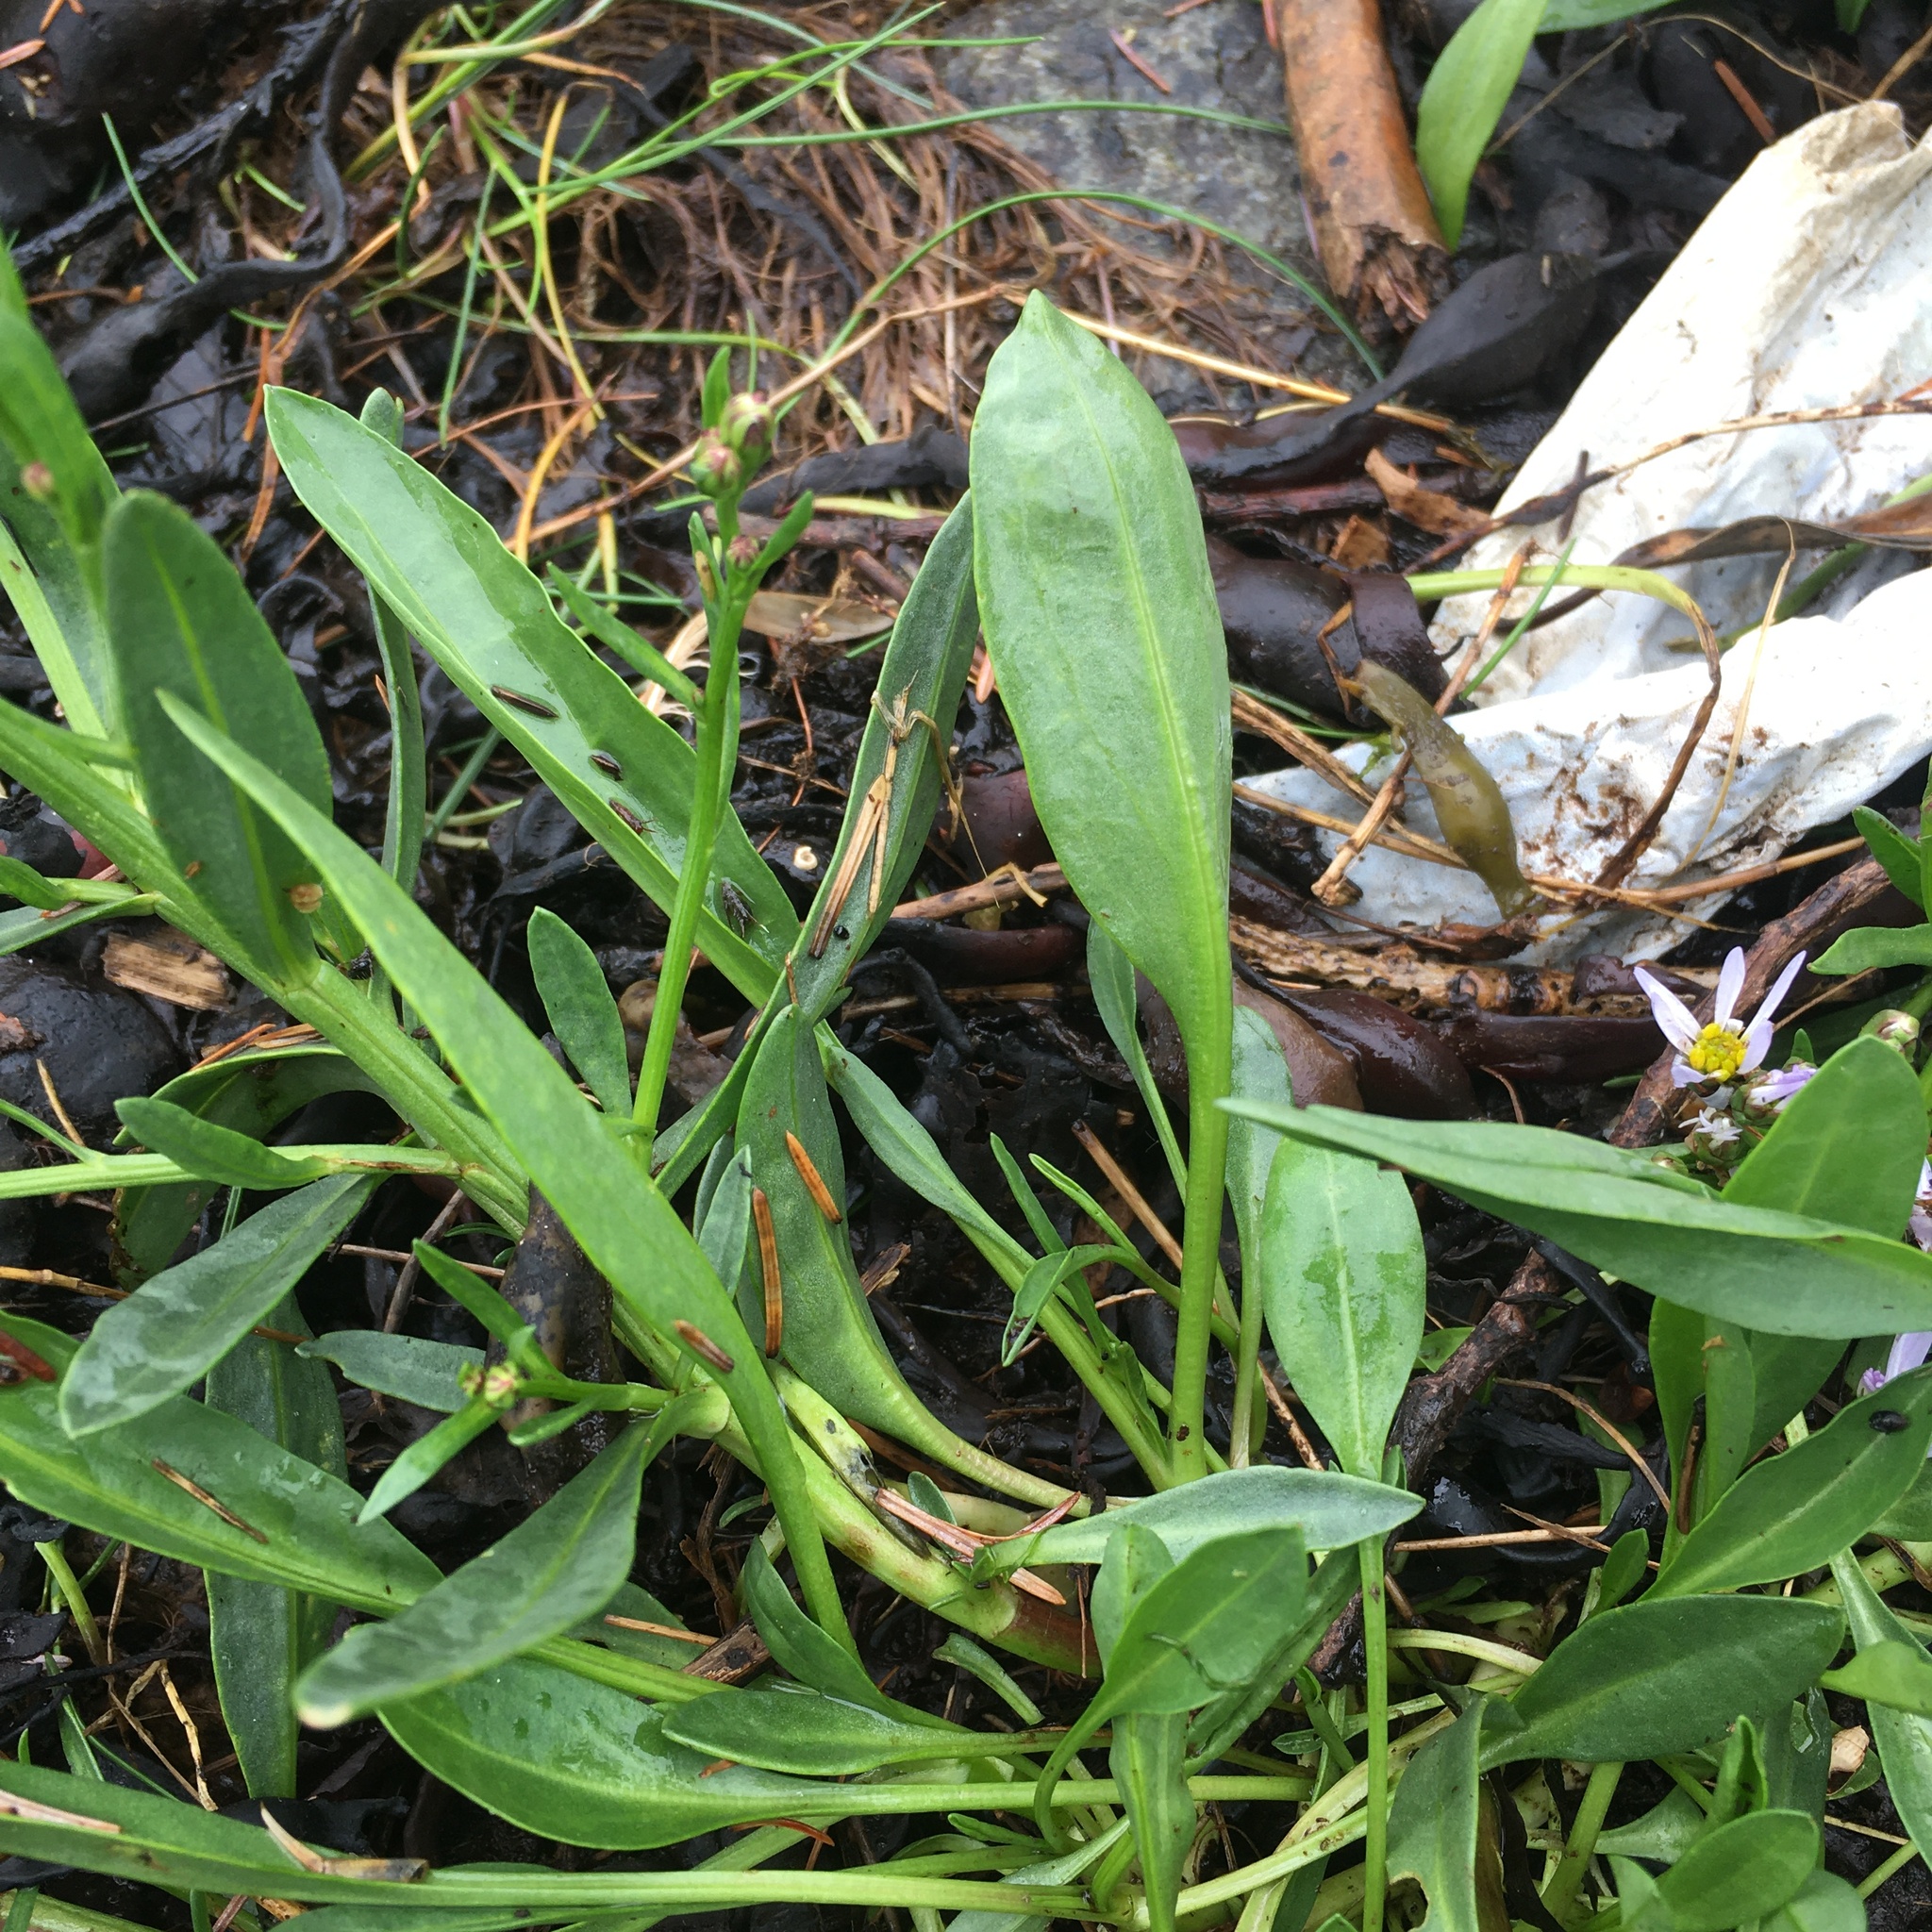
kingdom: Plantae
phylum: Tracheophyta
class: Magnoliopsida
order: Asterales
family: Asteraceae
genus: Tripolium
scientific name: Tripolium pannonicum
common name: Sea aster
